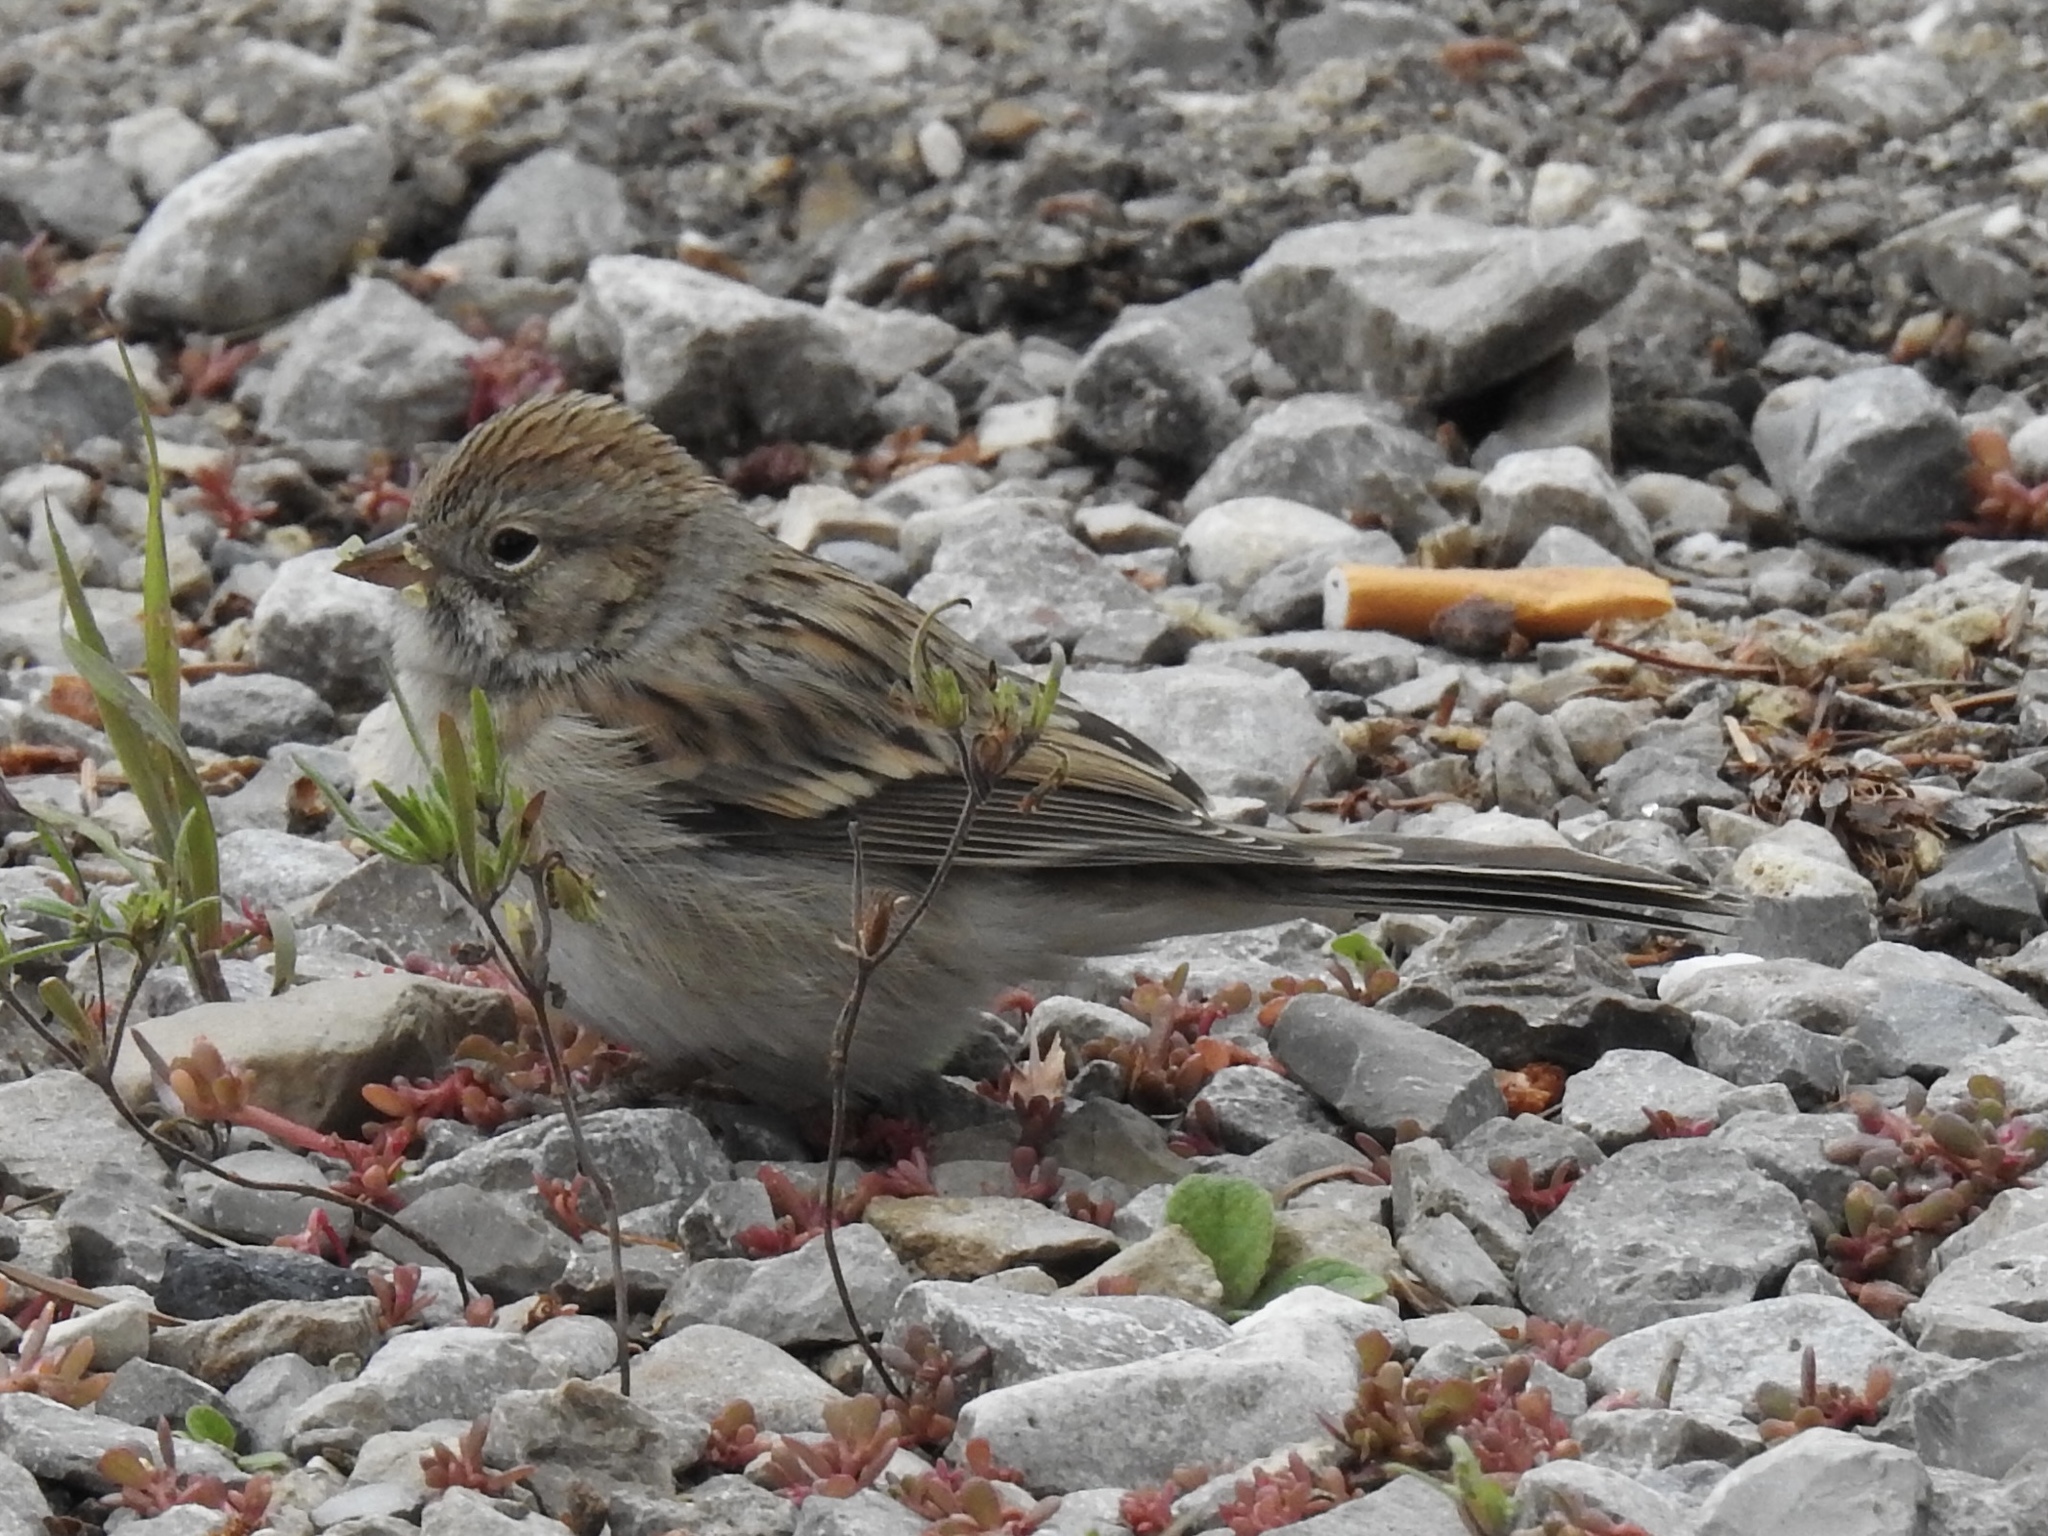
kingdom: Animalia
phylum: Chordata
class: Aves
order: Passeriformes
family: Passerellidae
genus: Spizella
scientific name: Spizella breweri
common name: Brewer's sparrow
